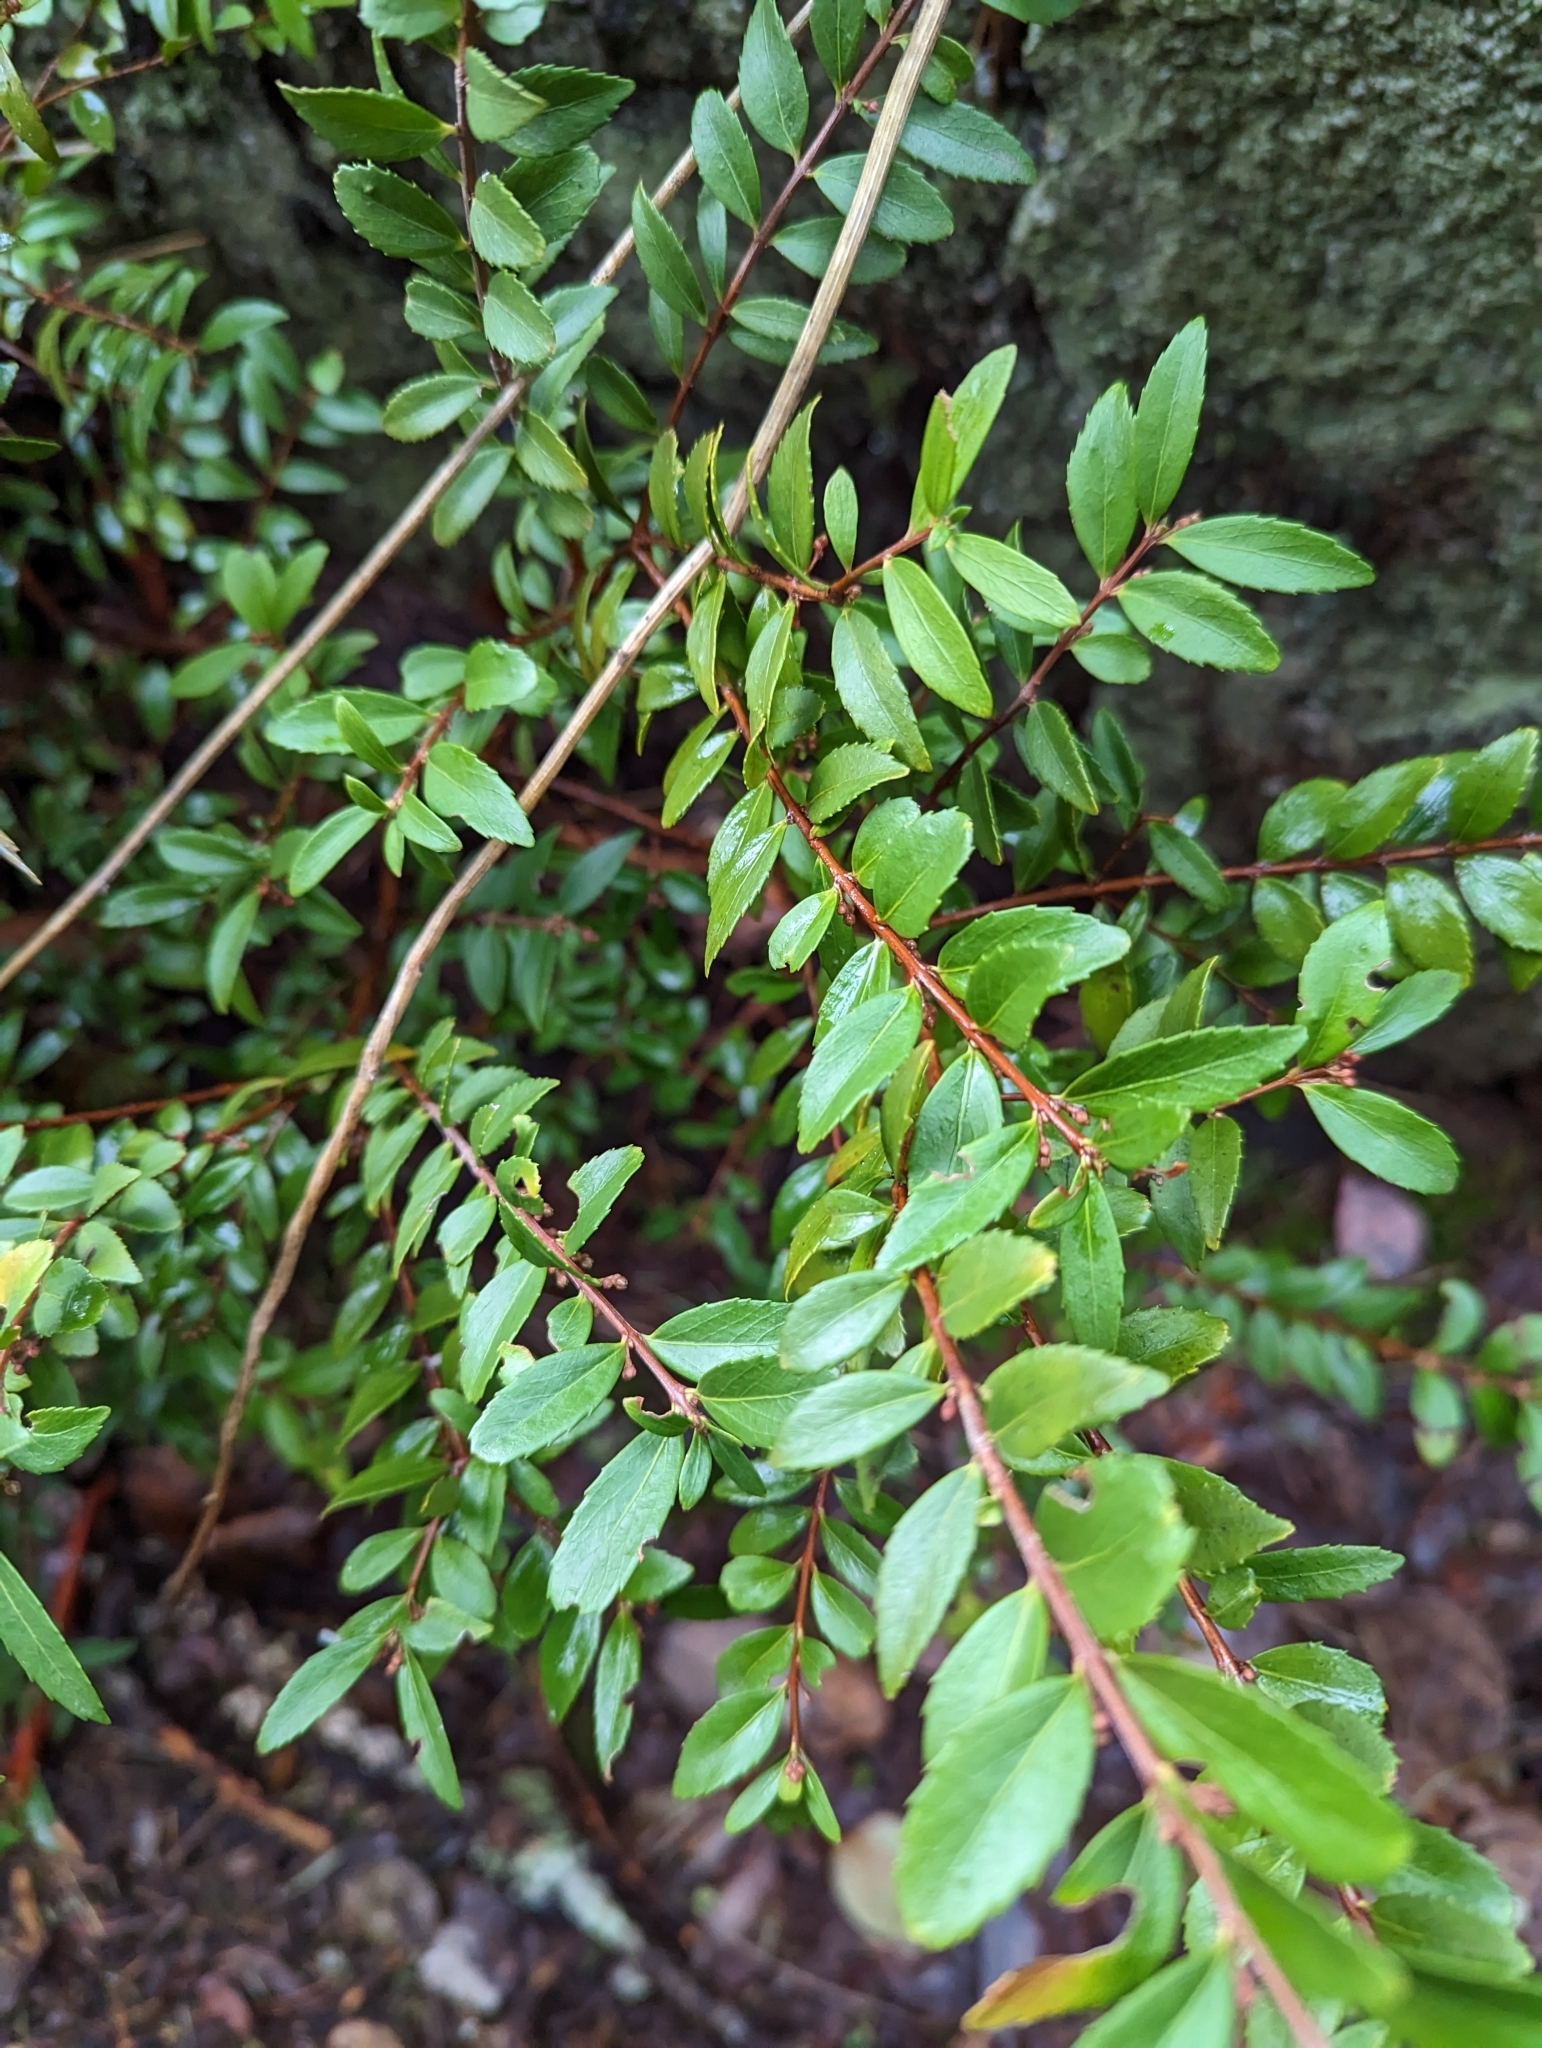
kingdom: Plantae
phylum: Tracheophyta
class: Magnoliopsida
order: Celastrales
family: Celastraceae
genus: Paxistima
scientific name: Paxistima myrsinites
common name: Mountain-lover
